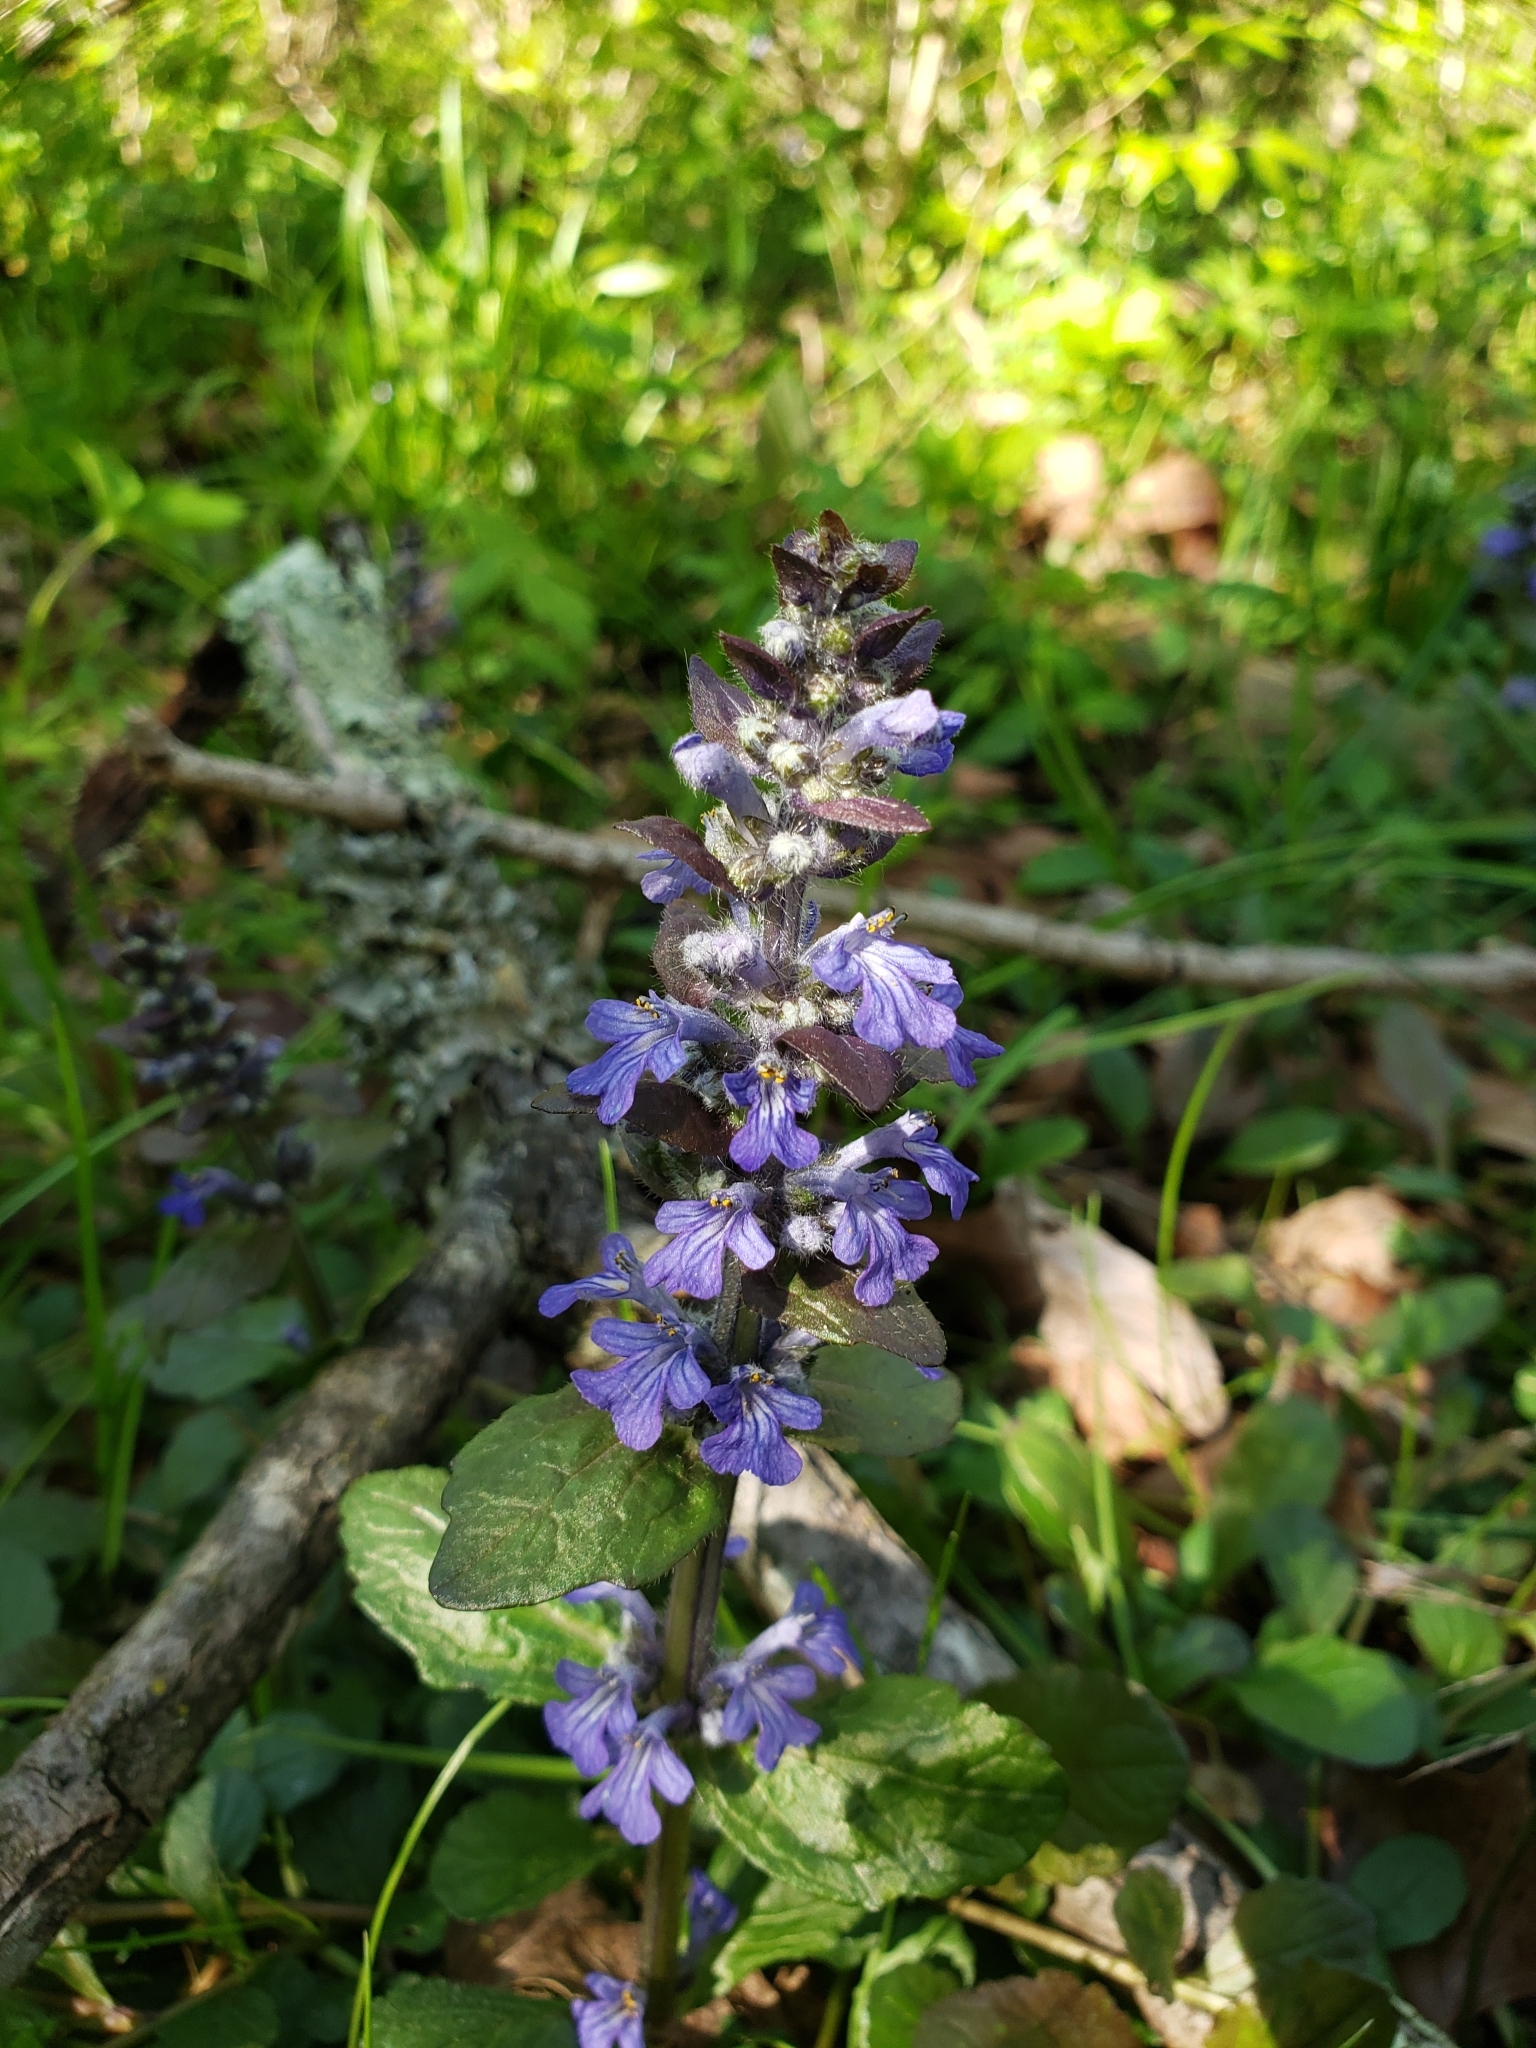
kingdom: Plantae
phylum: Tracheophyta
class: Magnoliopsida
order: Lamiales
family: Lamiaceae
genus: Ajuga
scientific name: Ajuga reptans
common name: Bugle
